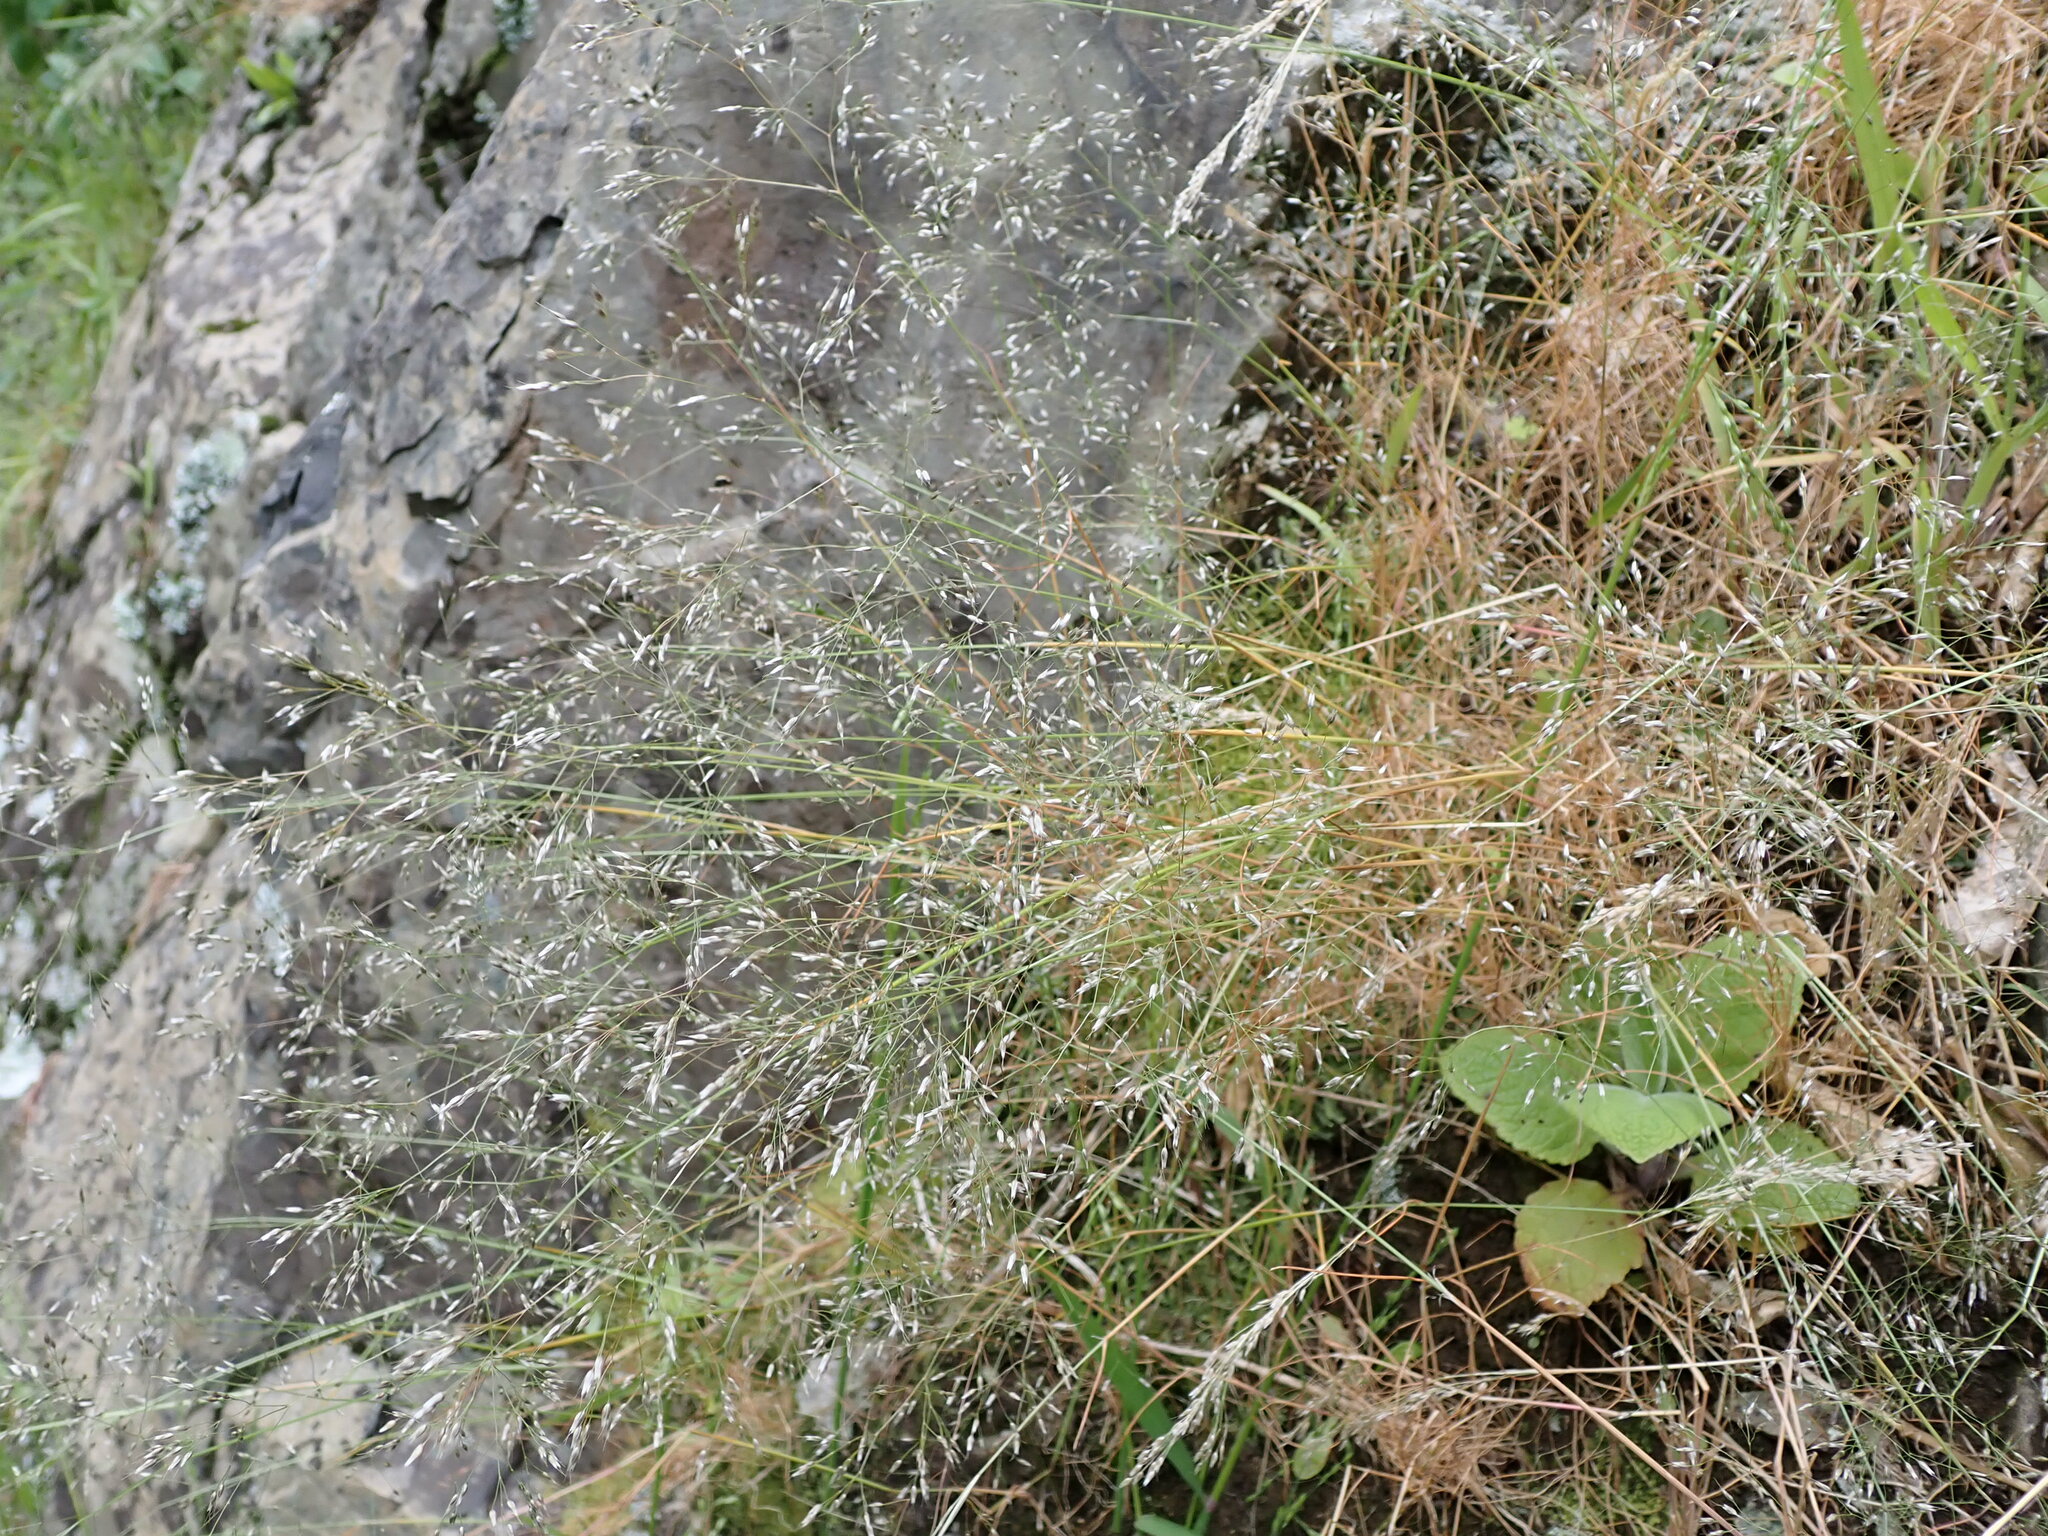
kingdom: Plantae
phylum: Tracheophyta
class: Liliopsida
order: Poales
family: Poaceae
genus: Aira
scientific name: Aira caryophyllea
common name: Silver hairgrass
